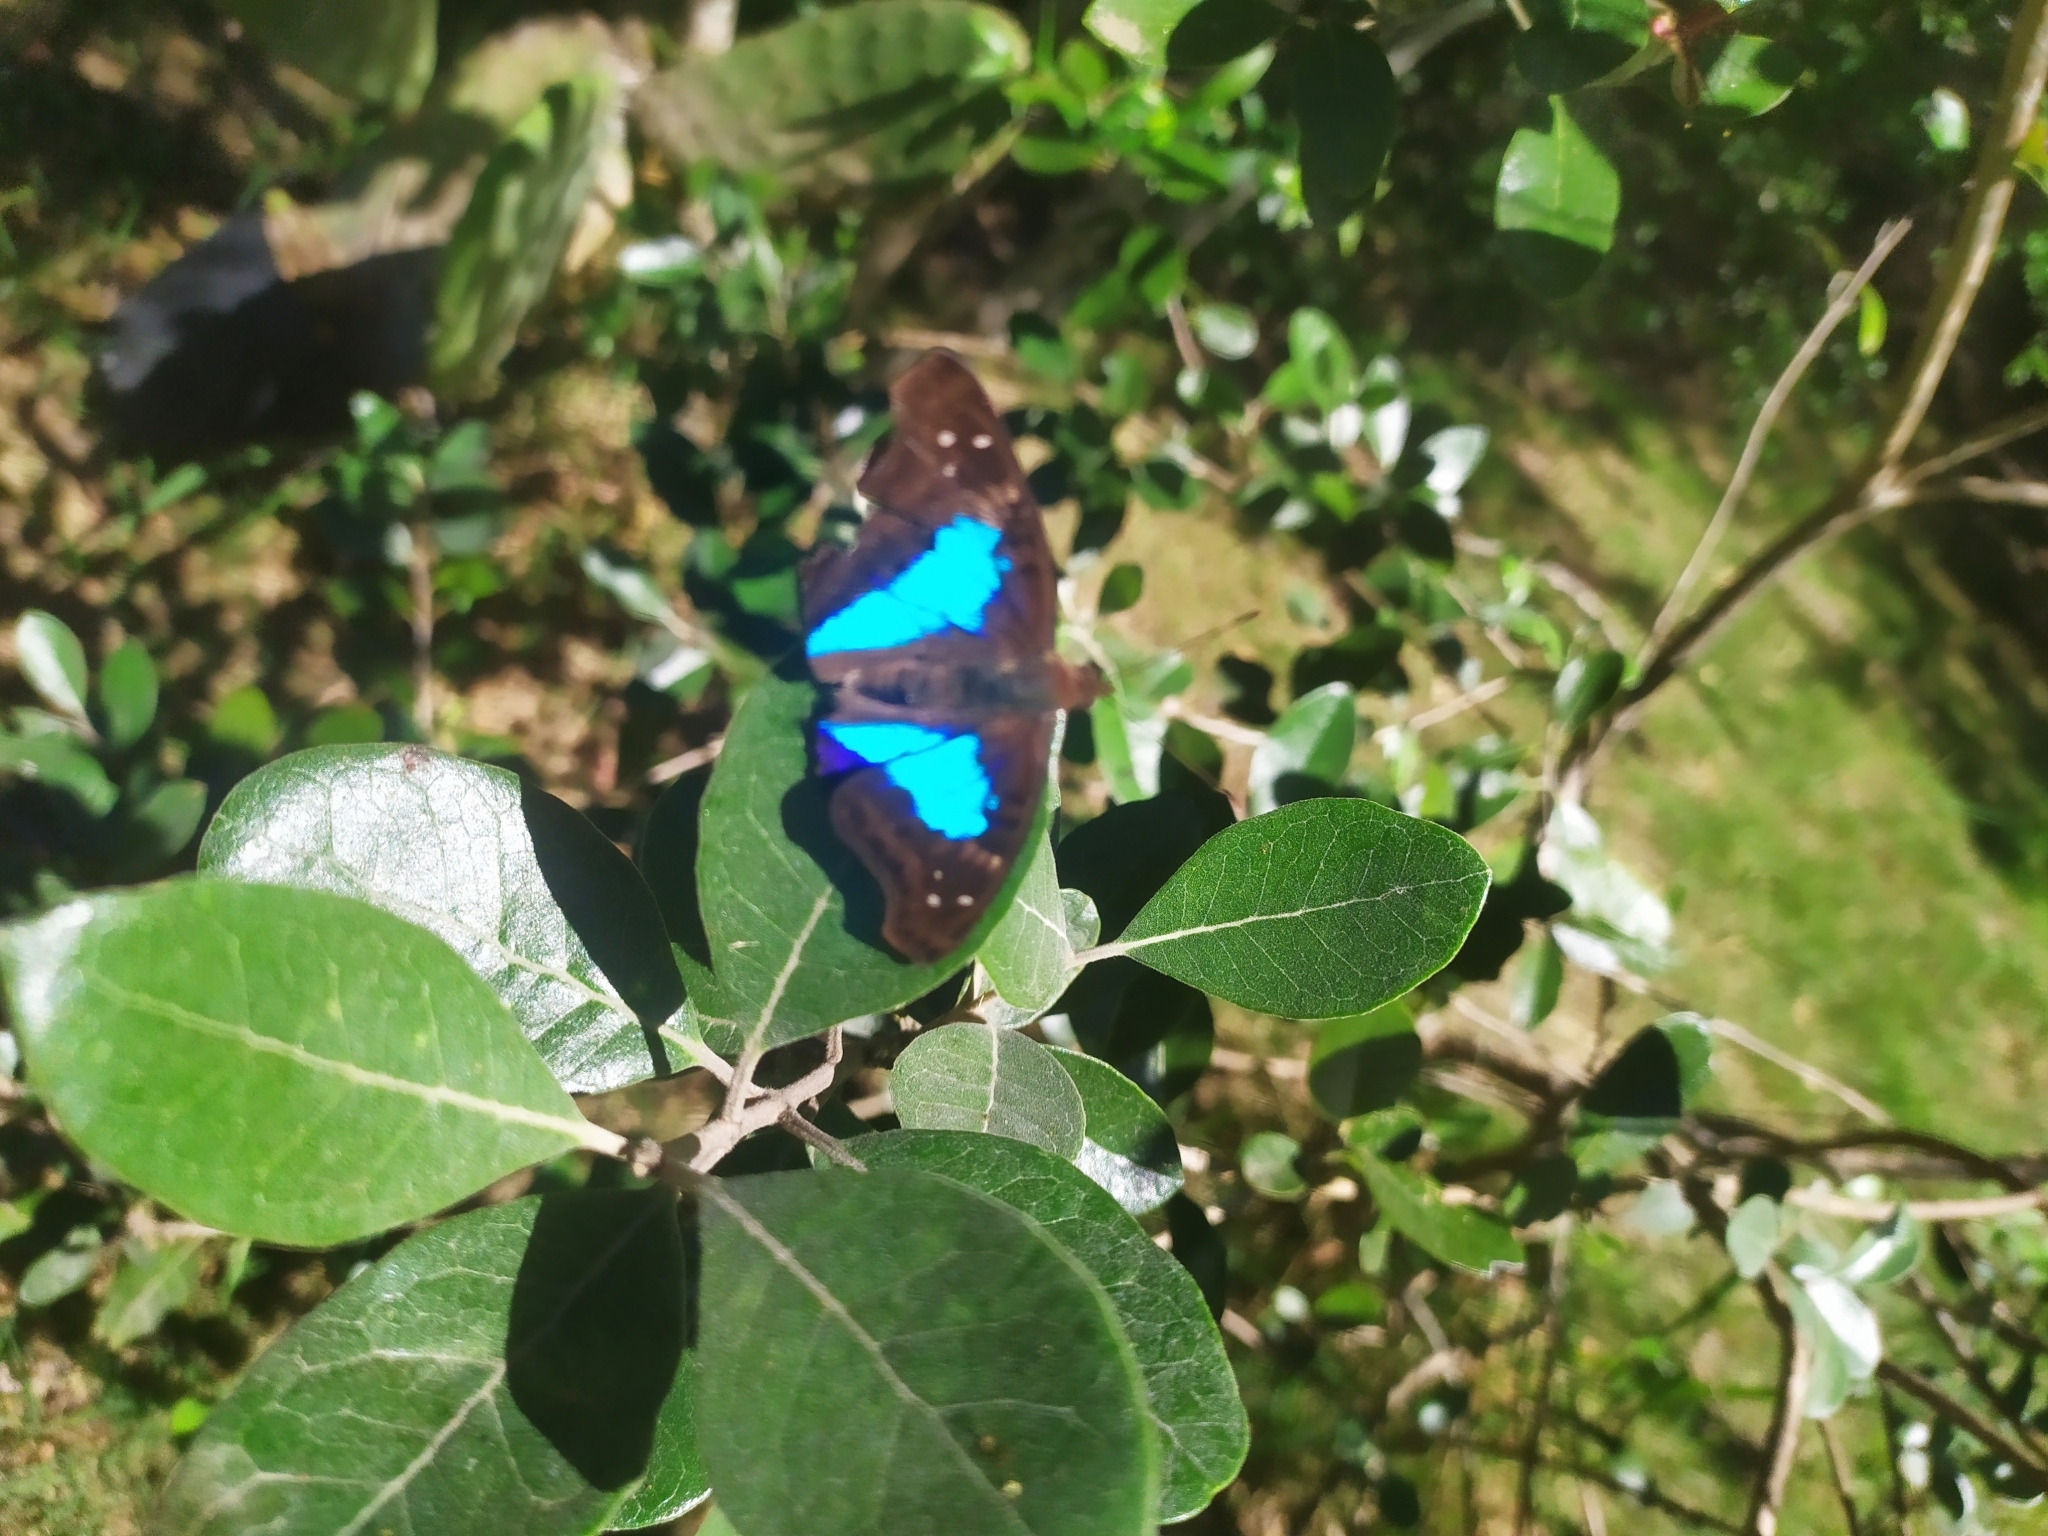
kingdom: Animalia
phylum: Arthropoda
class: Insecta
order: Lepidoptera
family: Nymphalidae
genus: Doxocopa
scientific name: Doxocopa laurentia
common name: Turquoise emperor
